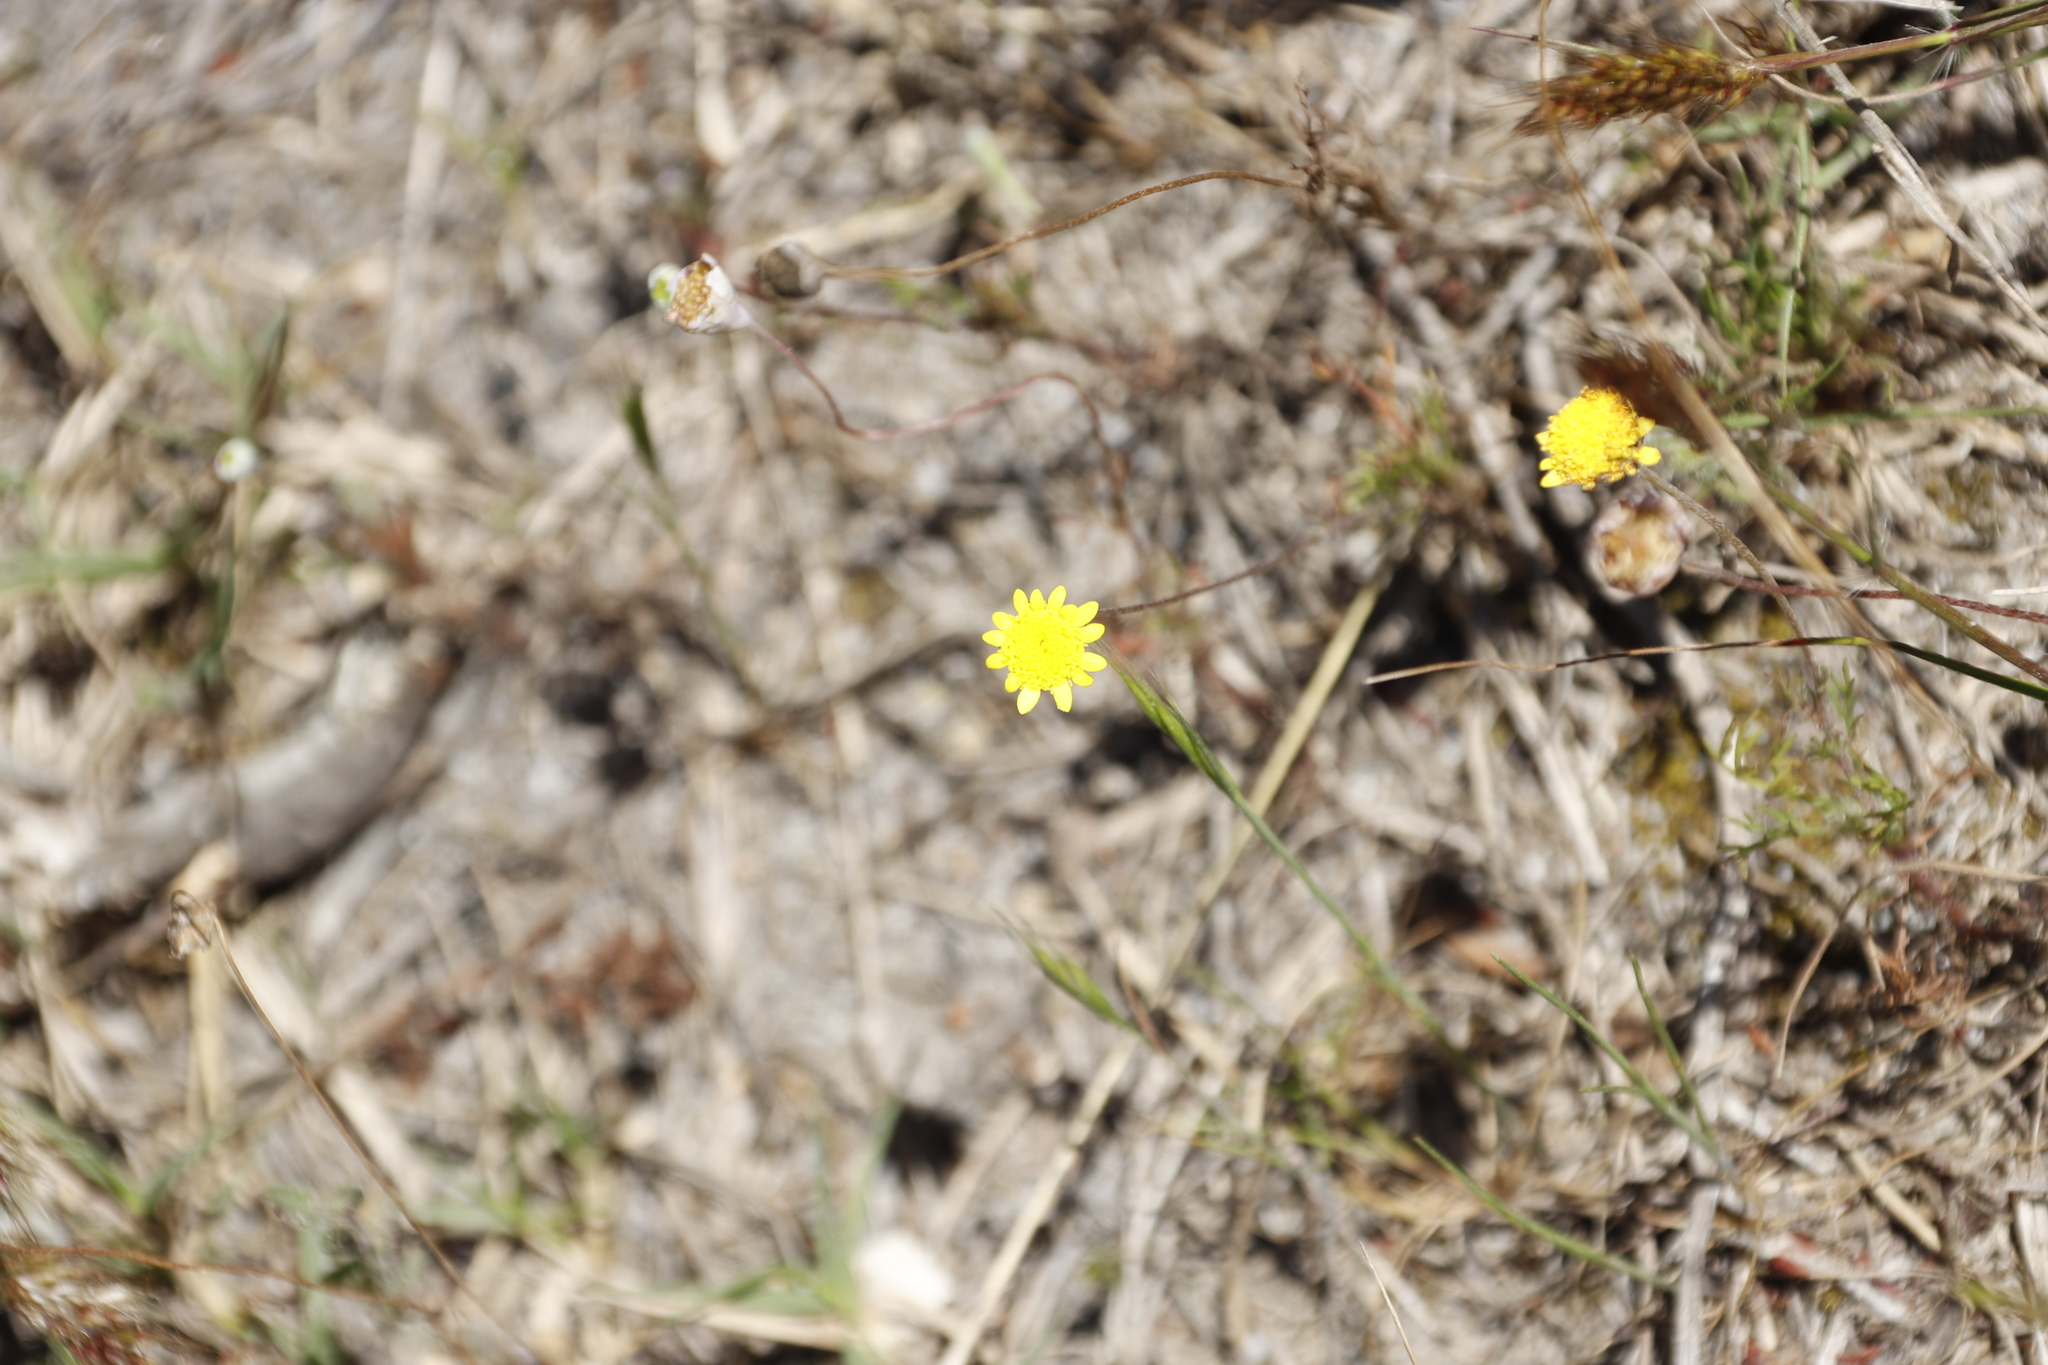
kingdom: Plantae
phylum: Tracheophyta
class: Magnoliopsida
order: Asterales
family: Asteraceae
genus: Cotula
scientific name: Cotula pruinosa
